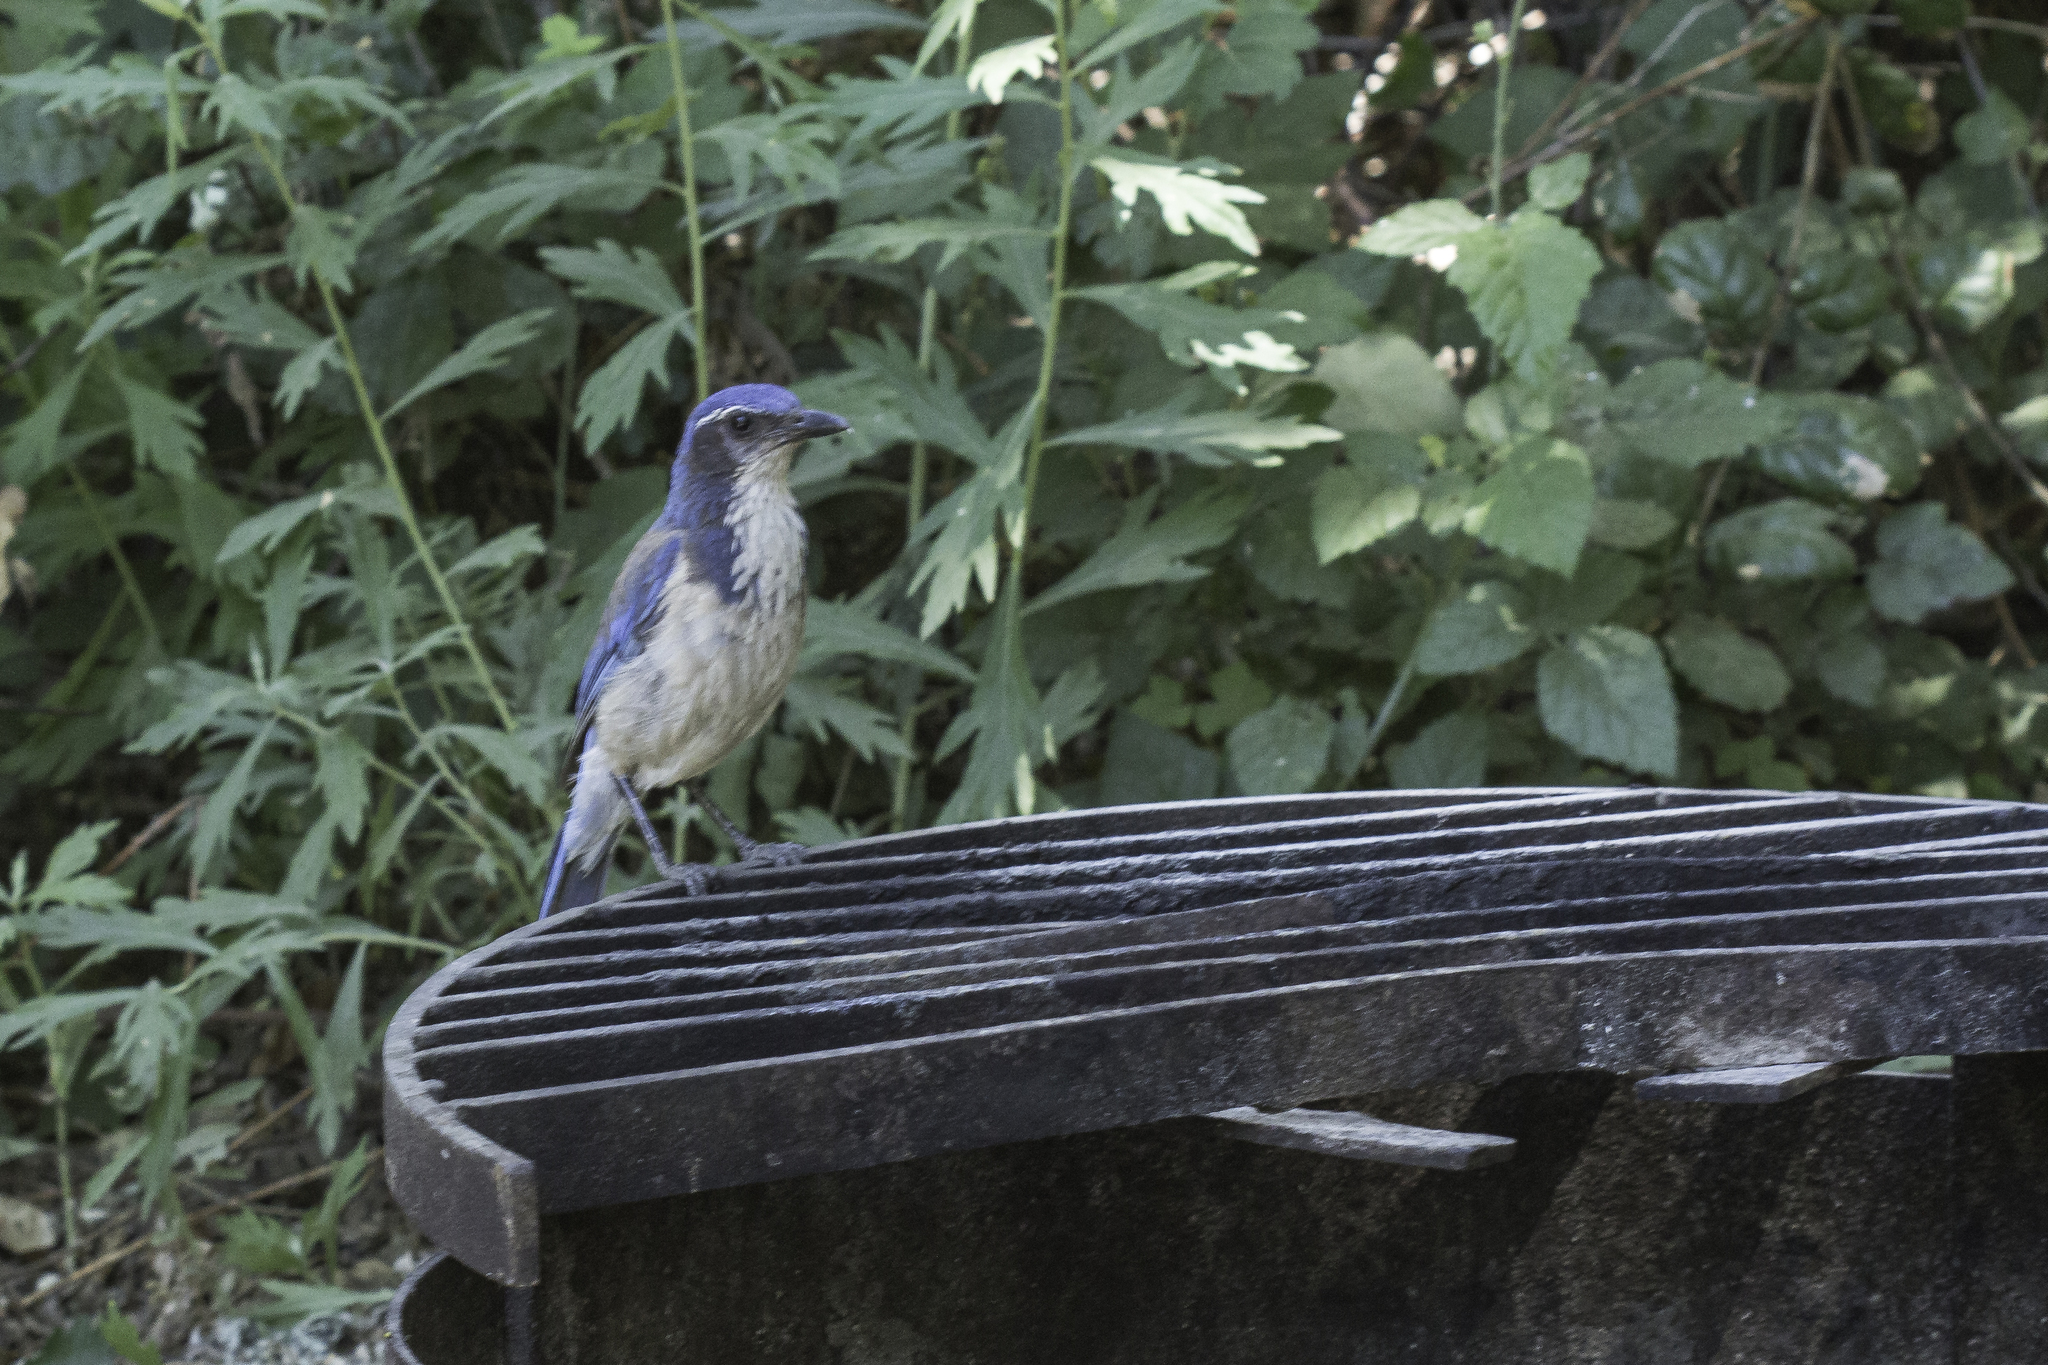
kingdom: Animalia
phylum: Chordata
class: Aves
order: Passeriformes
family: Corvidae
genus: Aphelocoma
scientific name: Aphelocoma californica
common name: California scrub-jay
